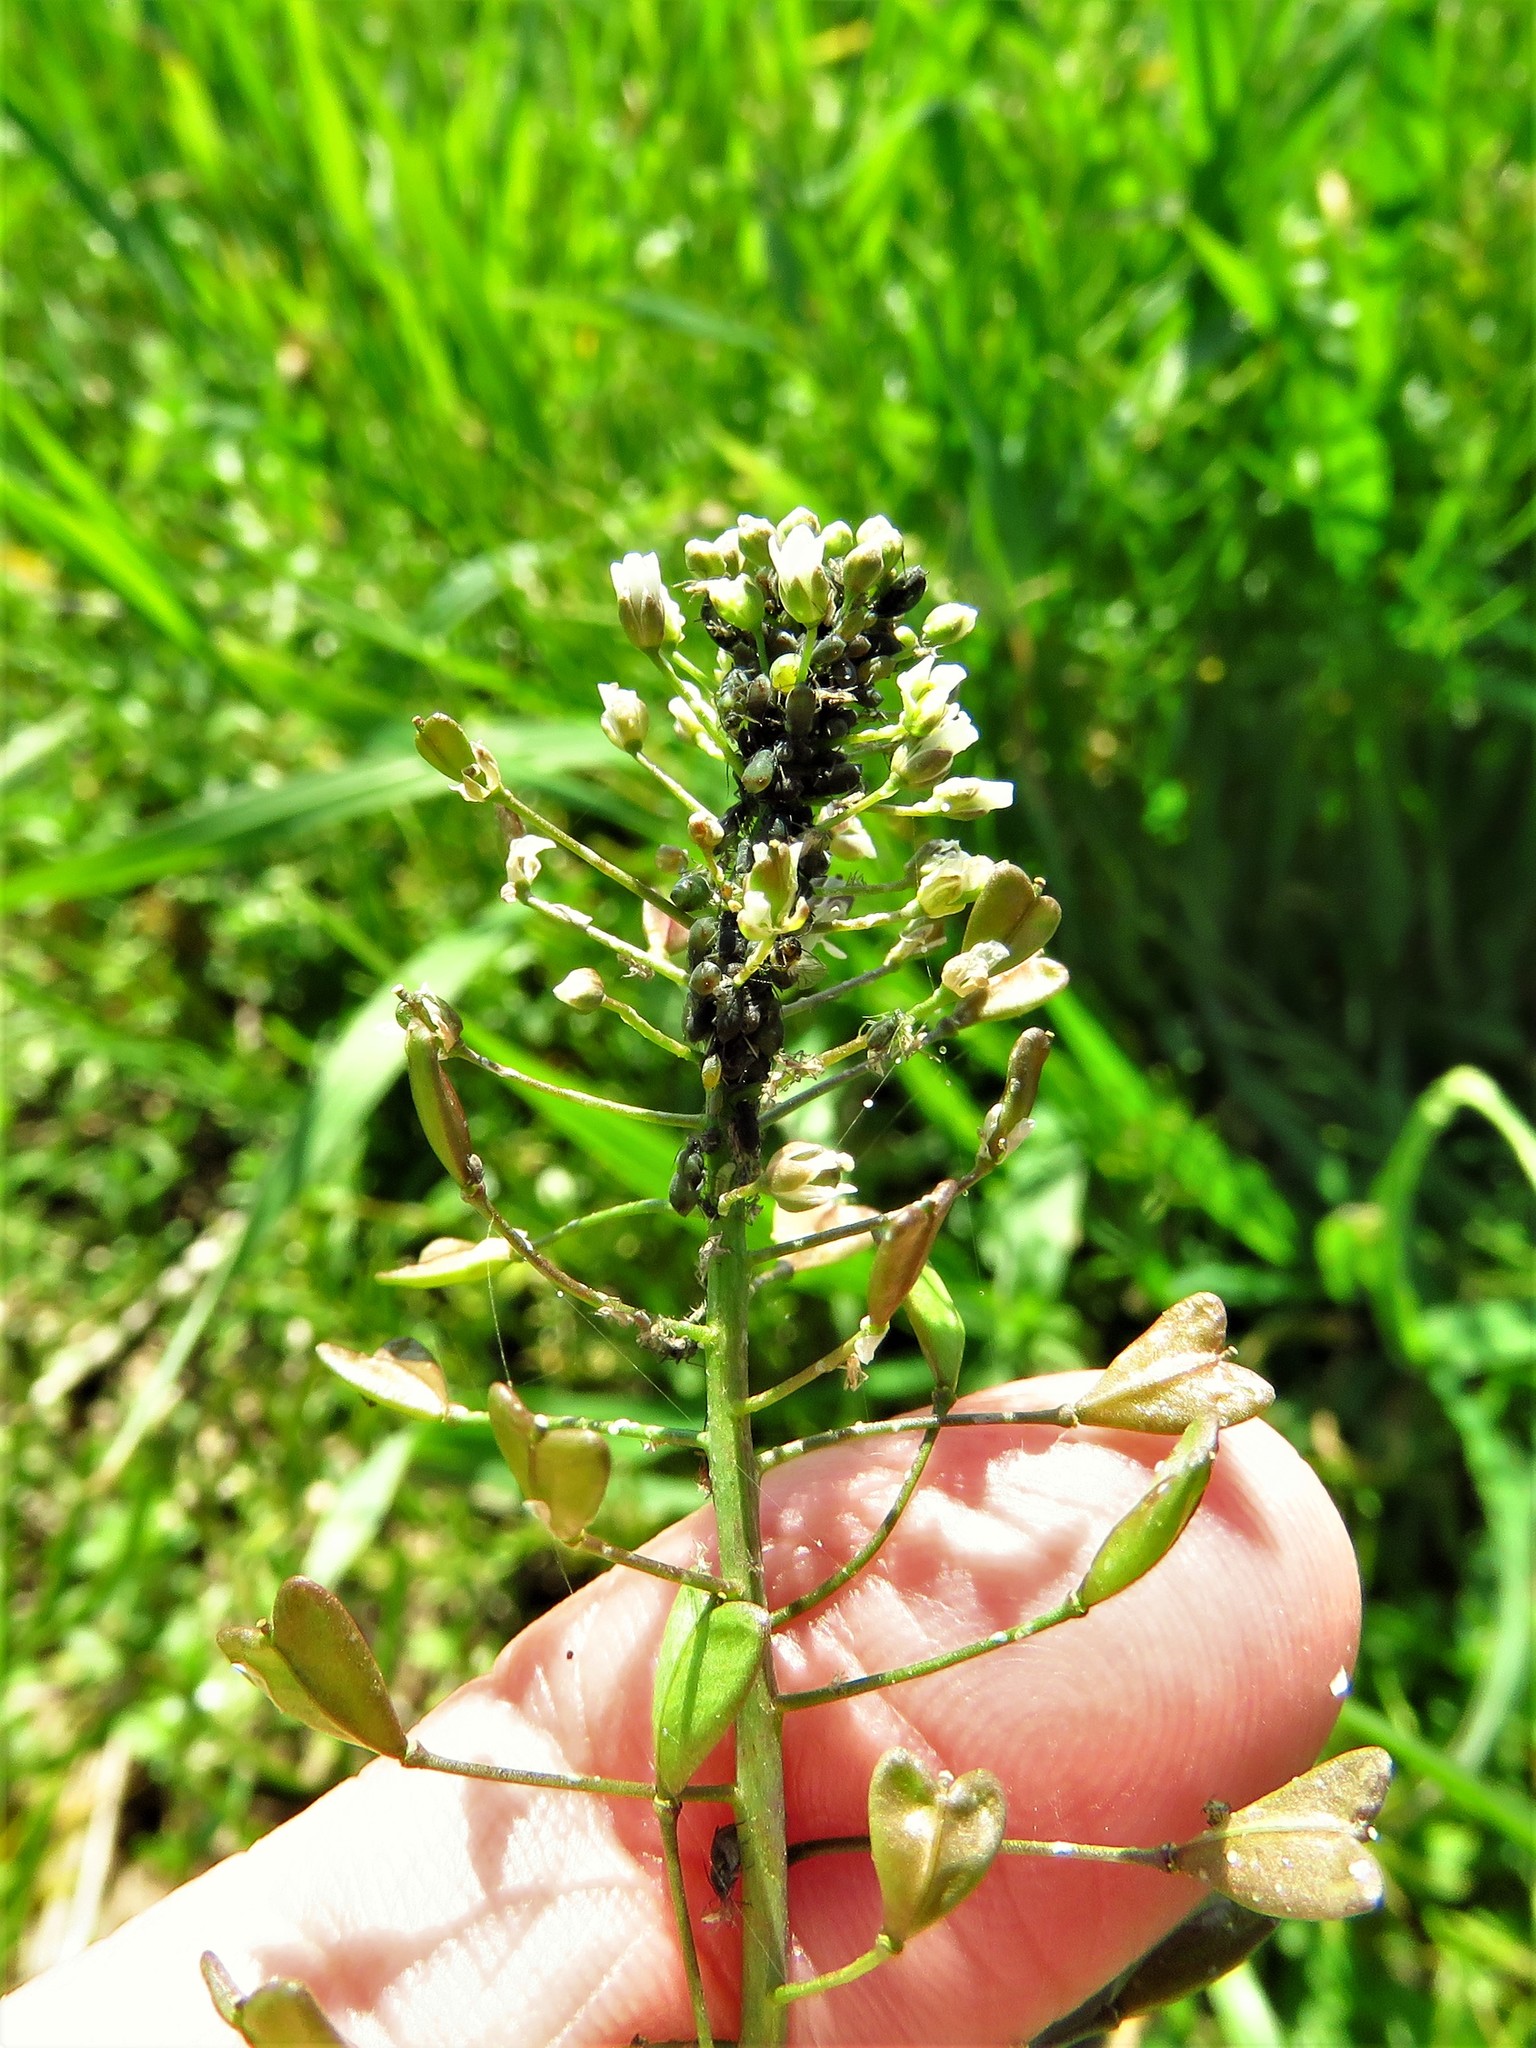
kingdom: Plantae
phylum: Tracheophyta
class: Magnoliopsida
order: Brassicales
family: Brassicaceae
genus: Capsella
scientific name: Capsella bursa-pastoris
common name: Shepherd's purse
